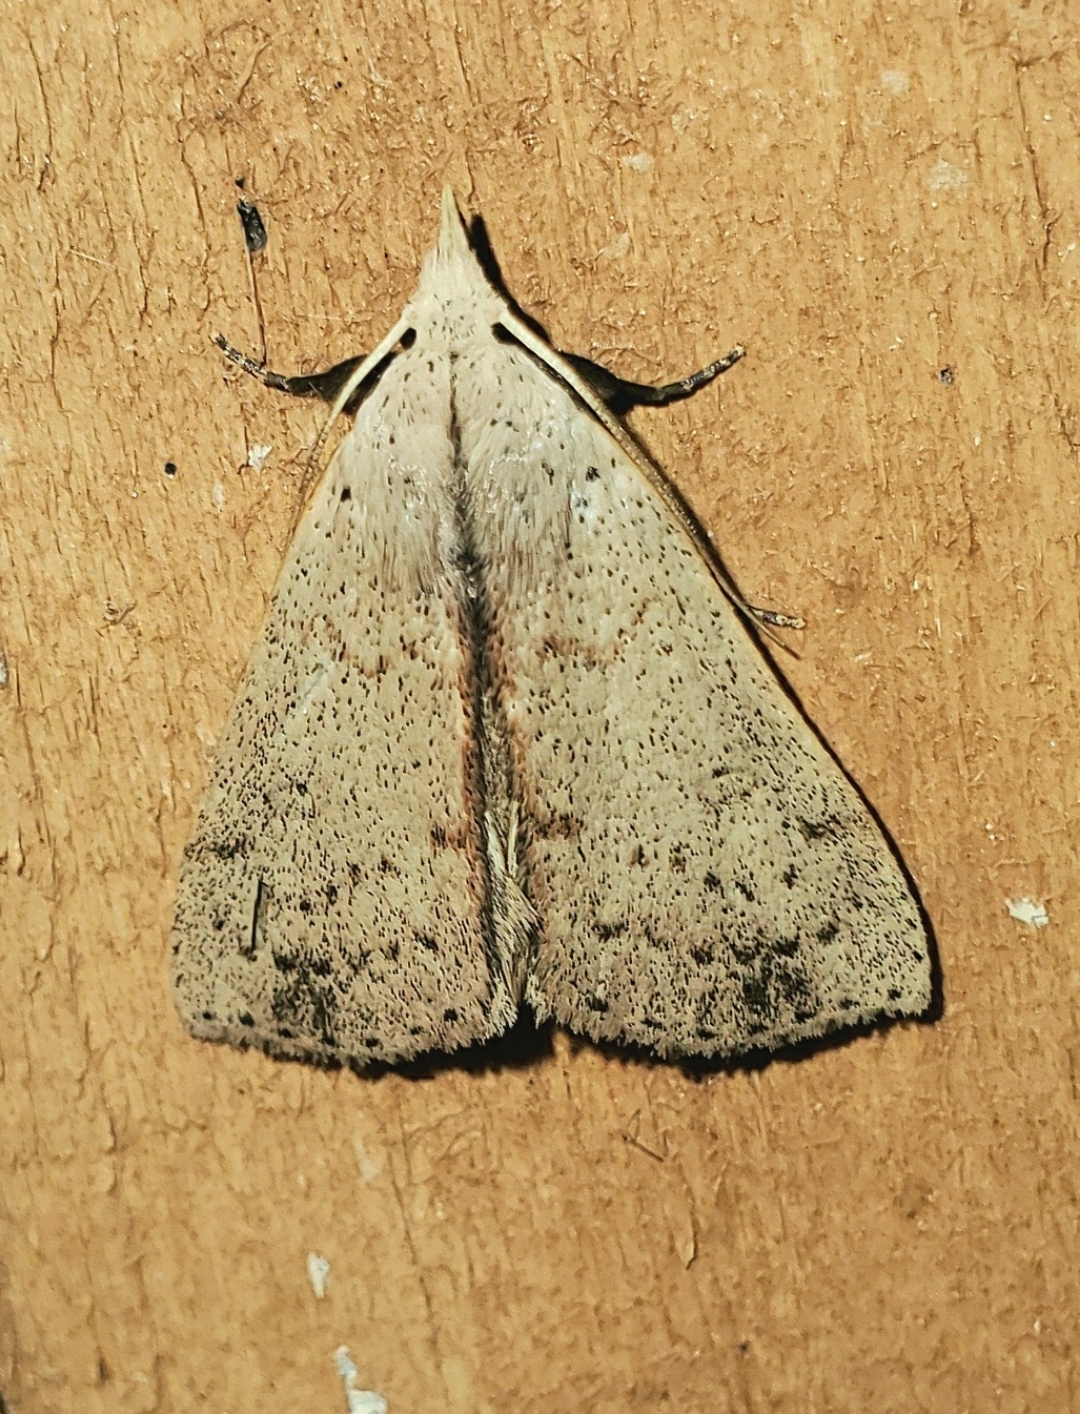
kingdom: Animalia
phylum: Arthropoda
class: Insecta
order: Lepidoptera
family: Erebidae
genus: Scolecocampa
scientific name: Scolecocampa liburna
